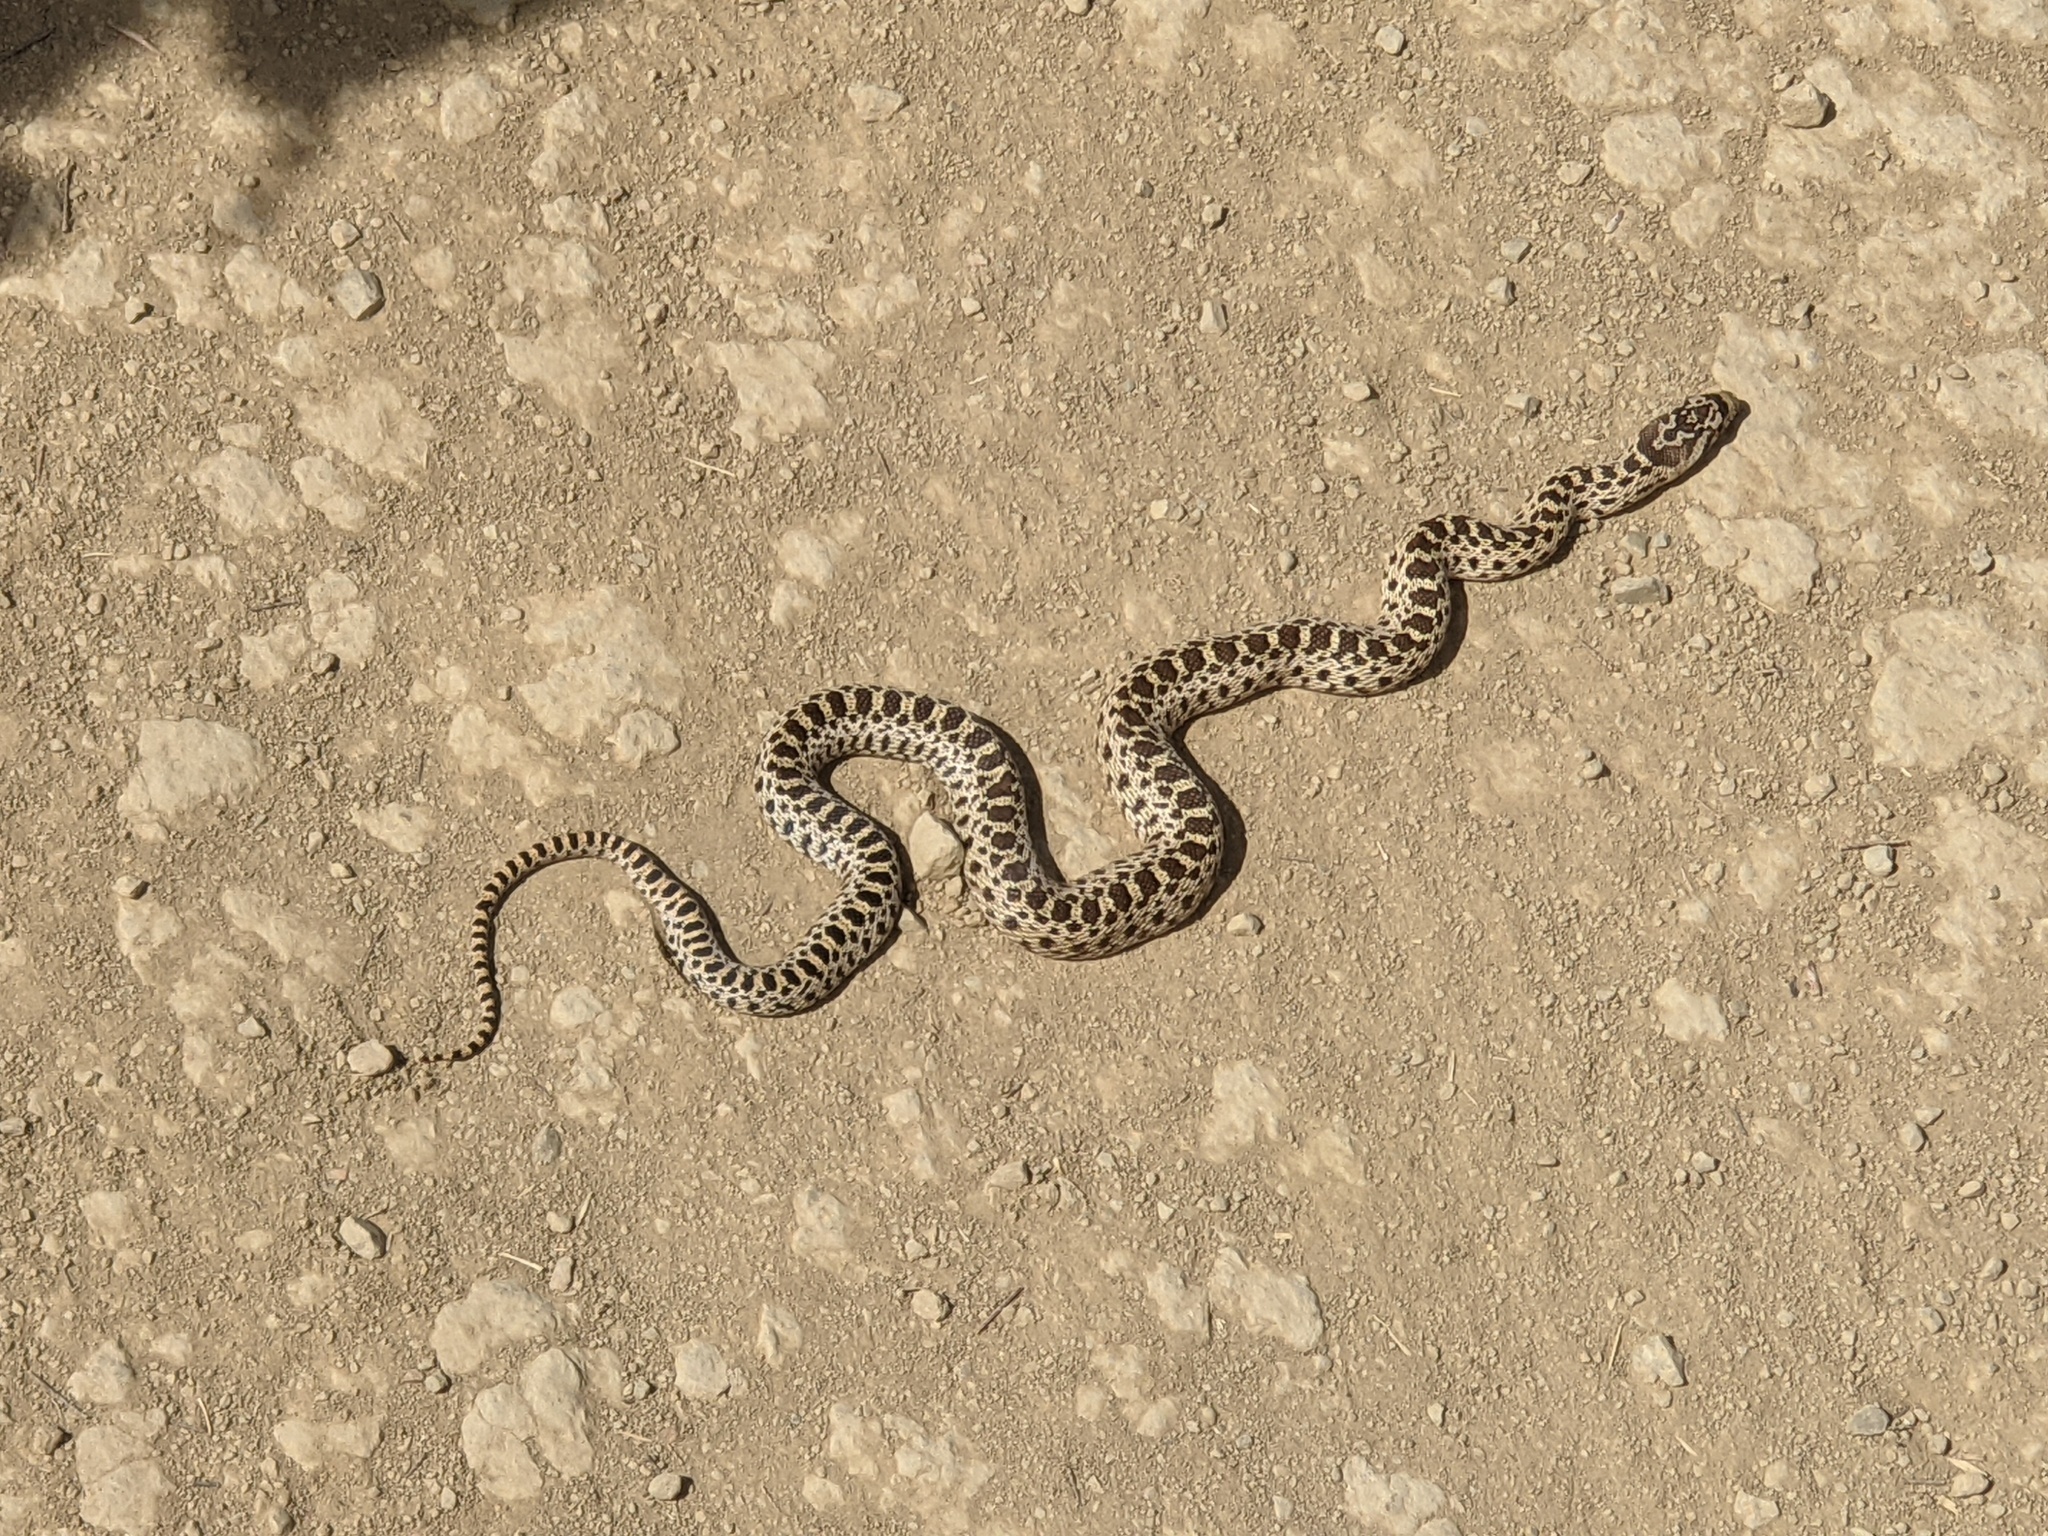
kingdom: Animalia
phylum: Chordata
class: Squamata
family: Colubridae
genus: Pituophis
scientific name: Pituophis catenifer
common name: Gopher snake
